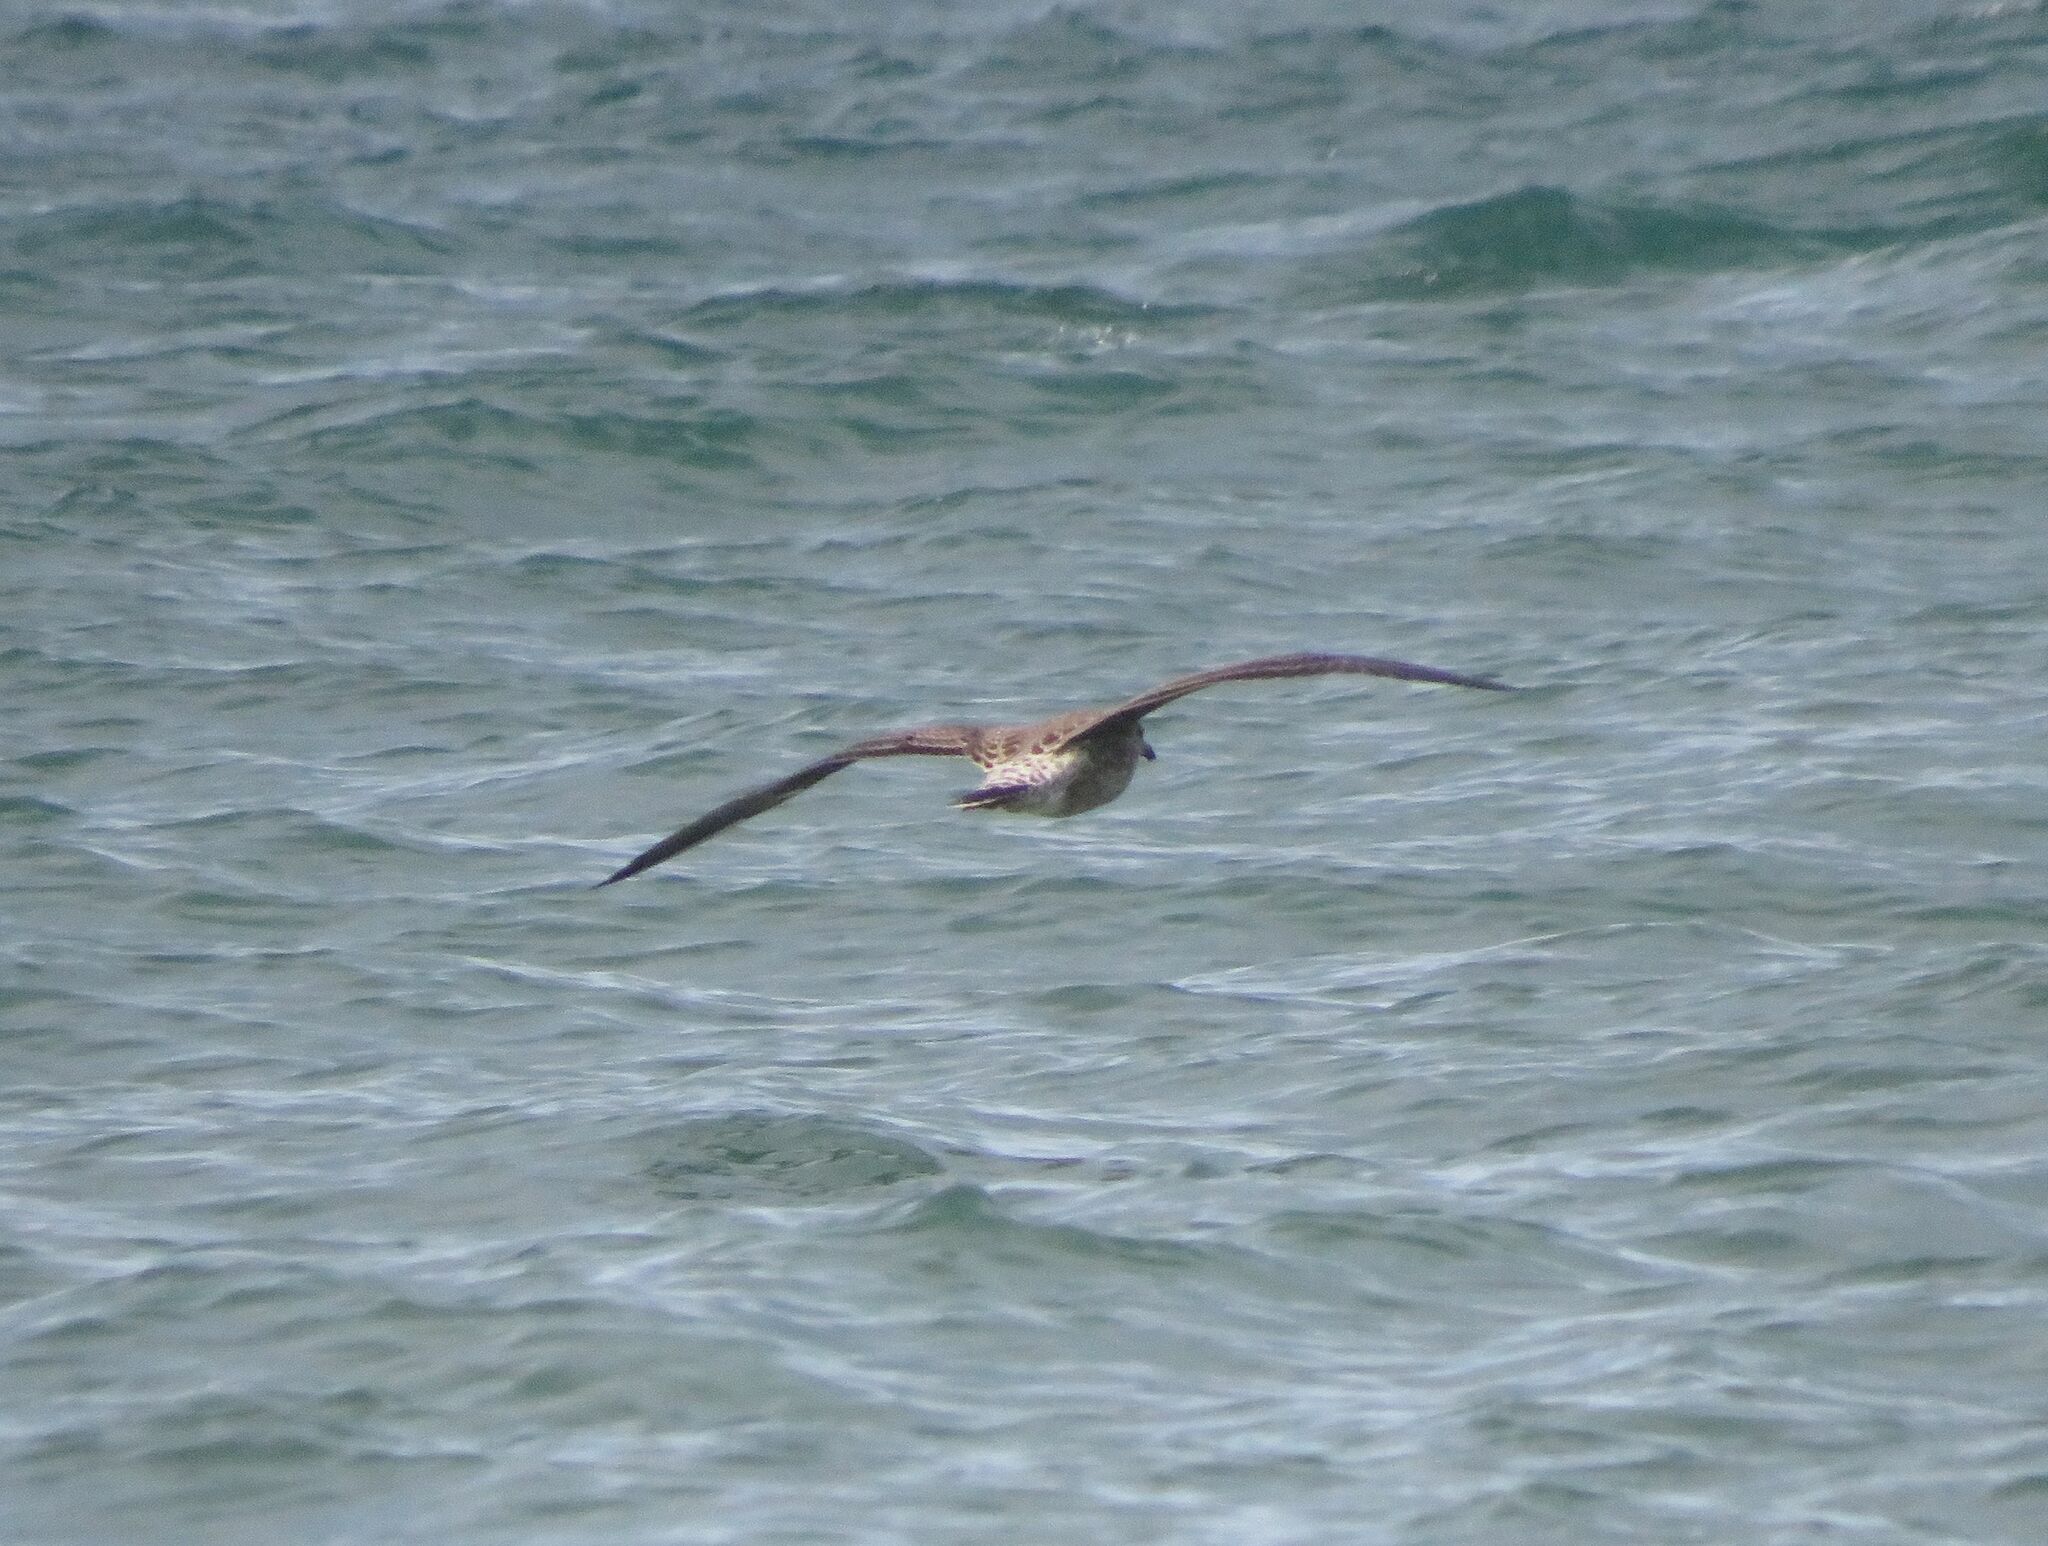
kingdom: Animalia
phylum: Chordata
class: Aves
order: Charadriiformes
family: Laridae
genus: Larus
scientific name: Larus dominicanus
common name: Kelp gull
